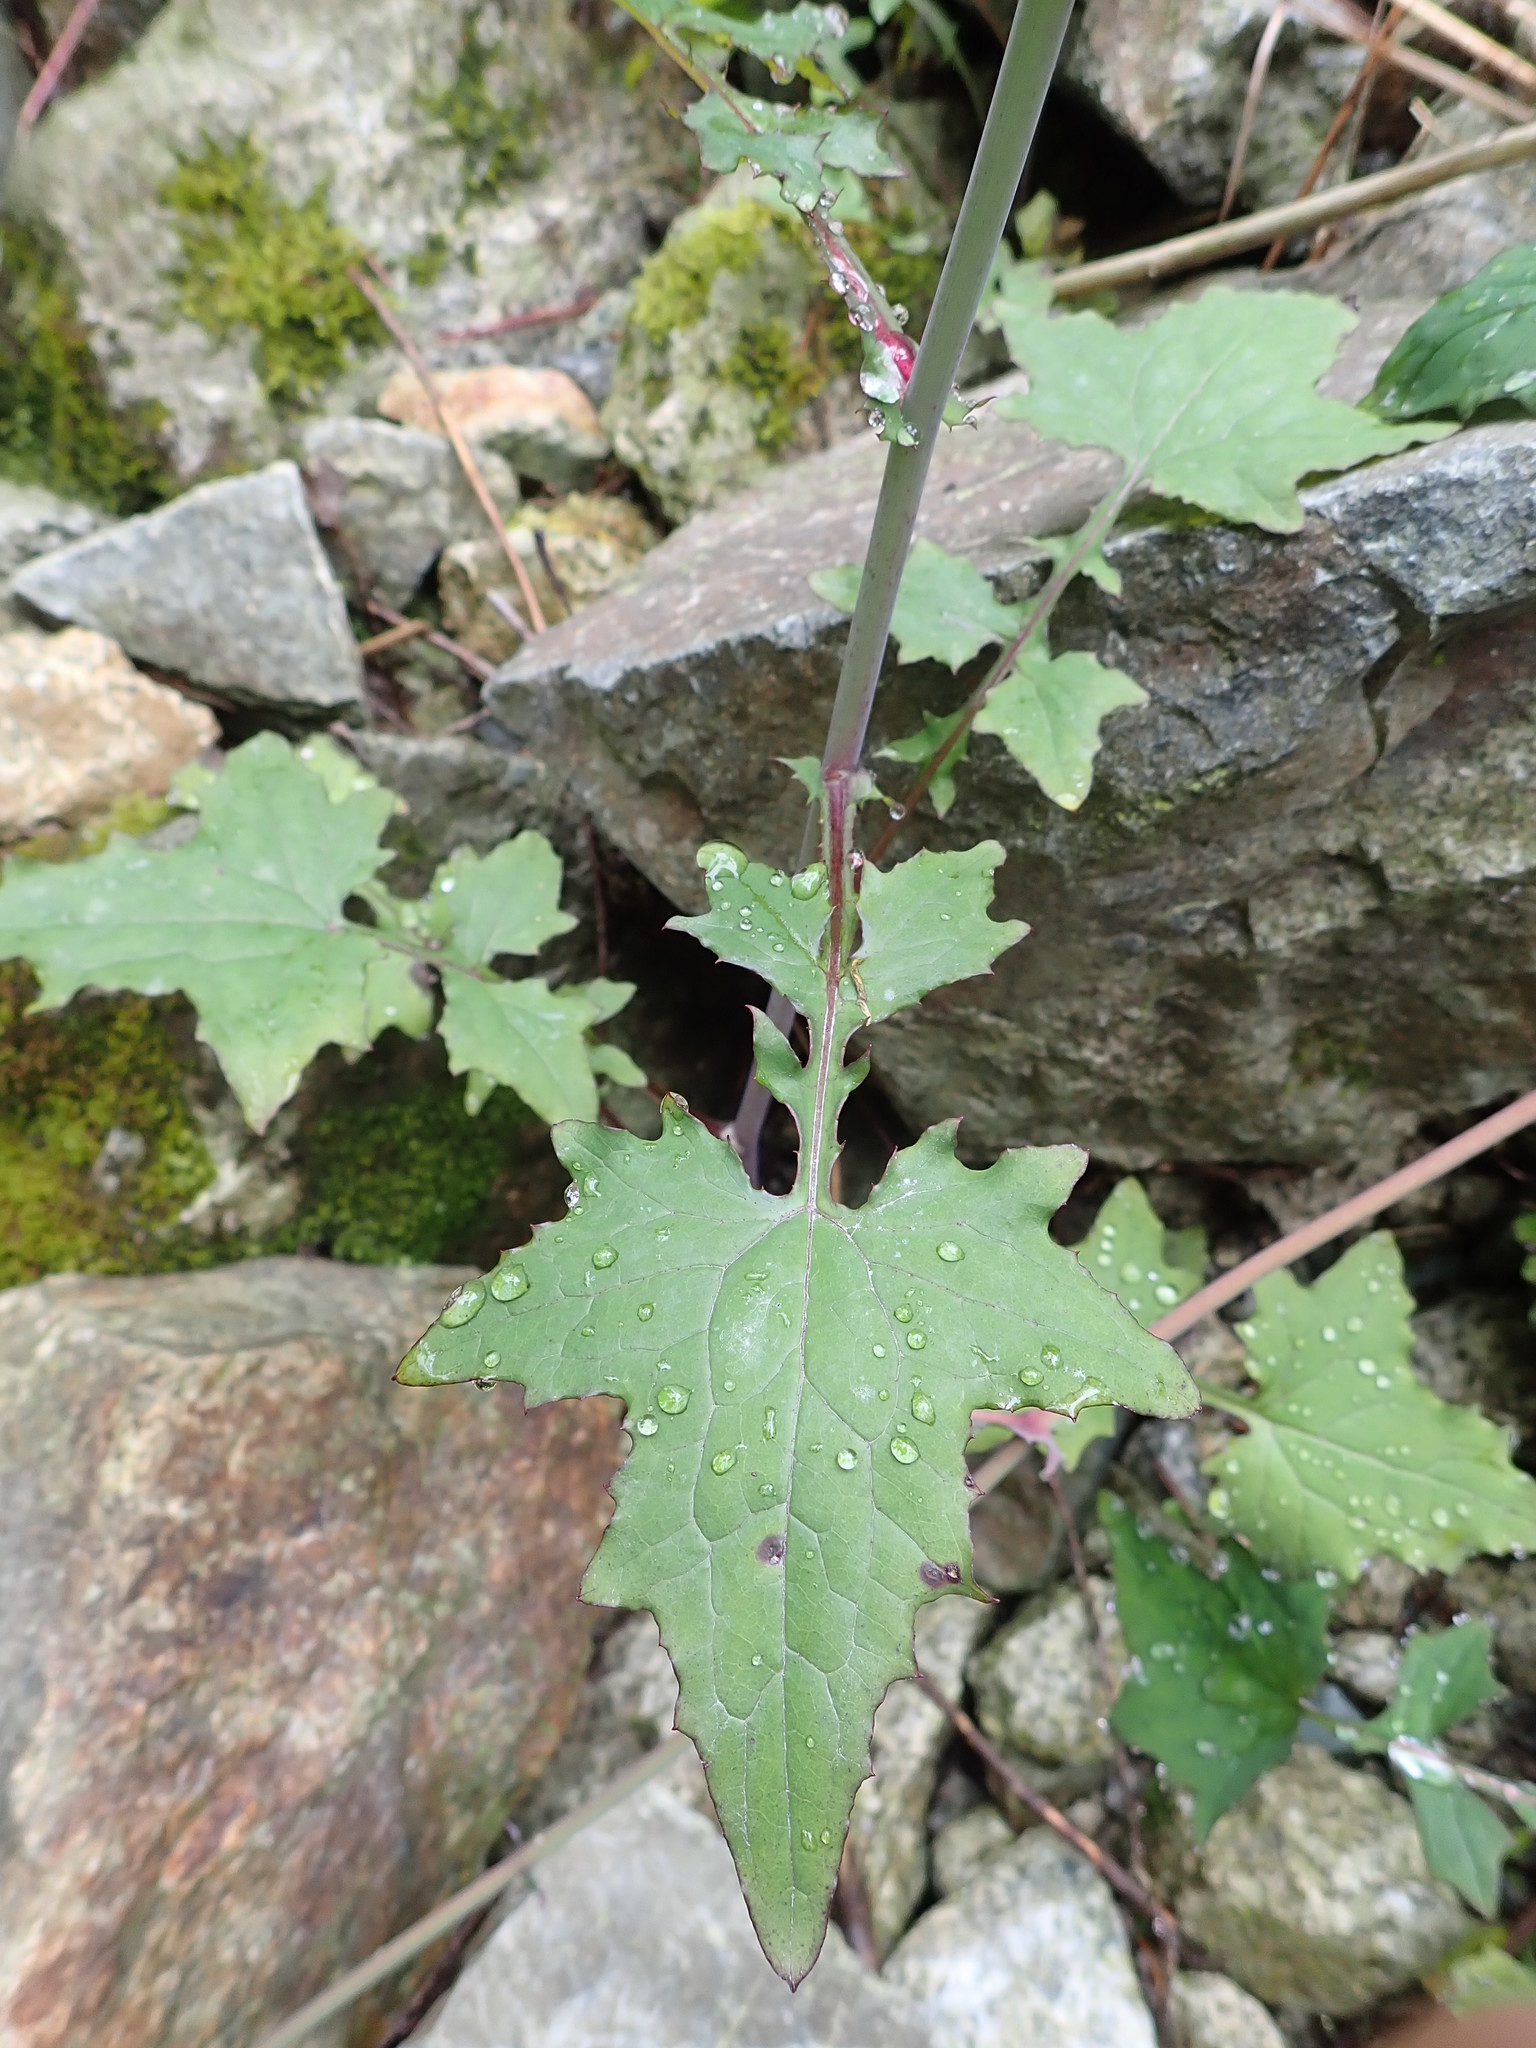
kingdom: Plantae
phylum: Tracheophyta
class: Magnoliopsida
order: Asterales
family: Asteraceae
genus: Mycelis
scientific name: Mycelis muralis
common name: Wall lettuce
